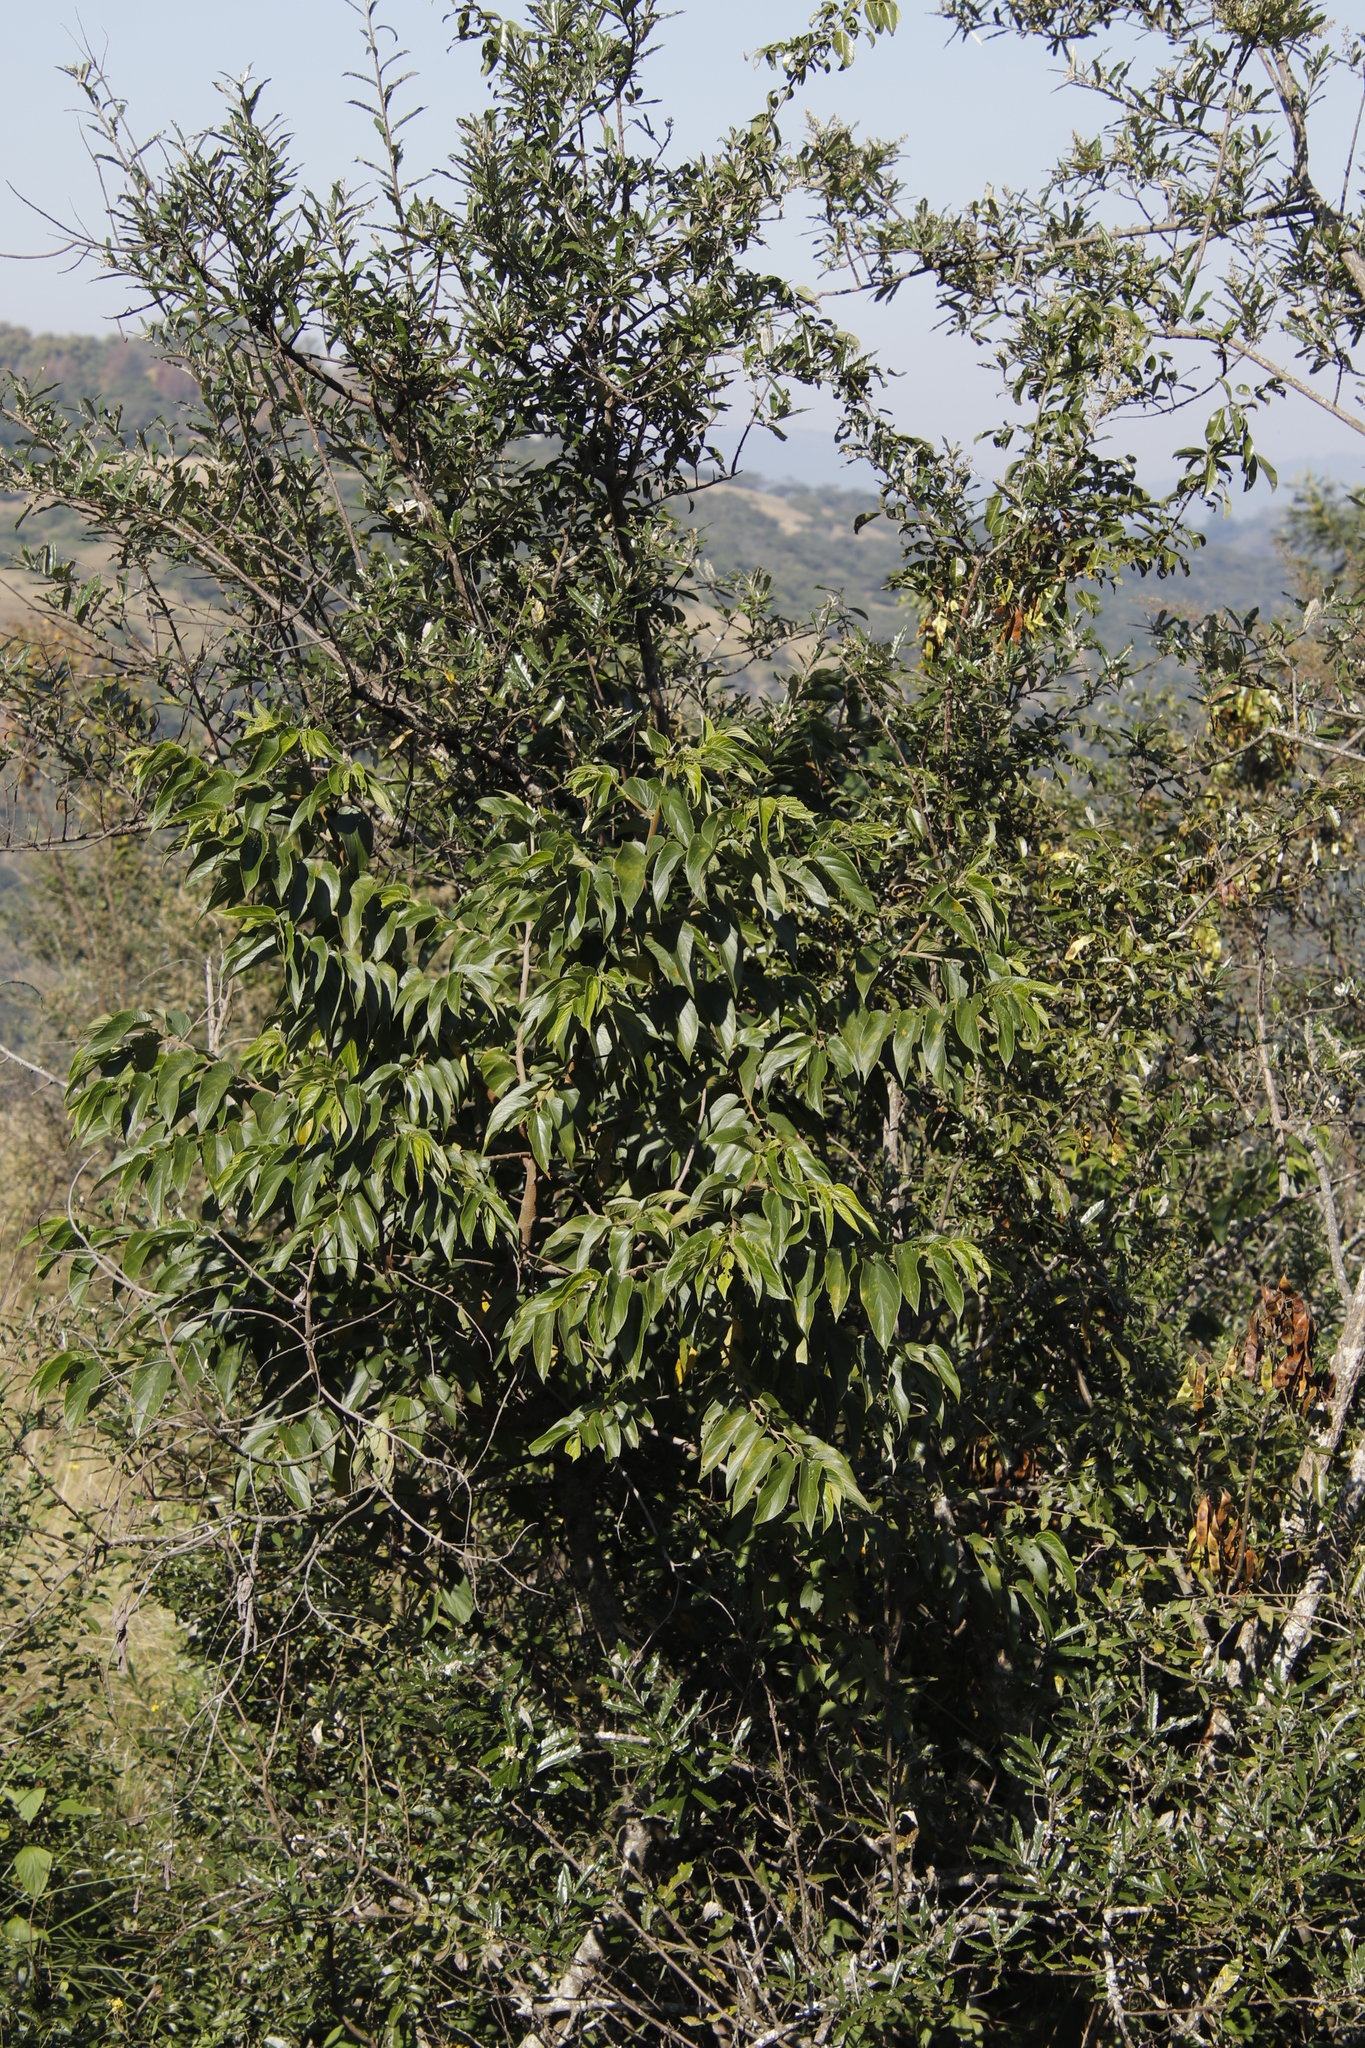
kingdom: Plantae
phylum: Tracheophyta
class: Magnoliopsida
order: Rosales
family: Cannabaceae
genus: Trema
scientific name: Trema orientale
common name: Indian charcoal tree
